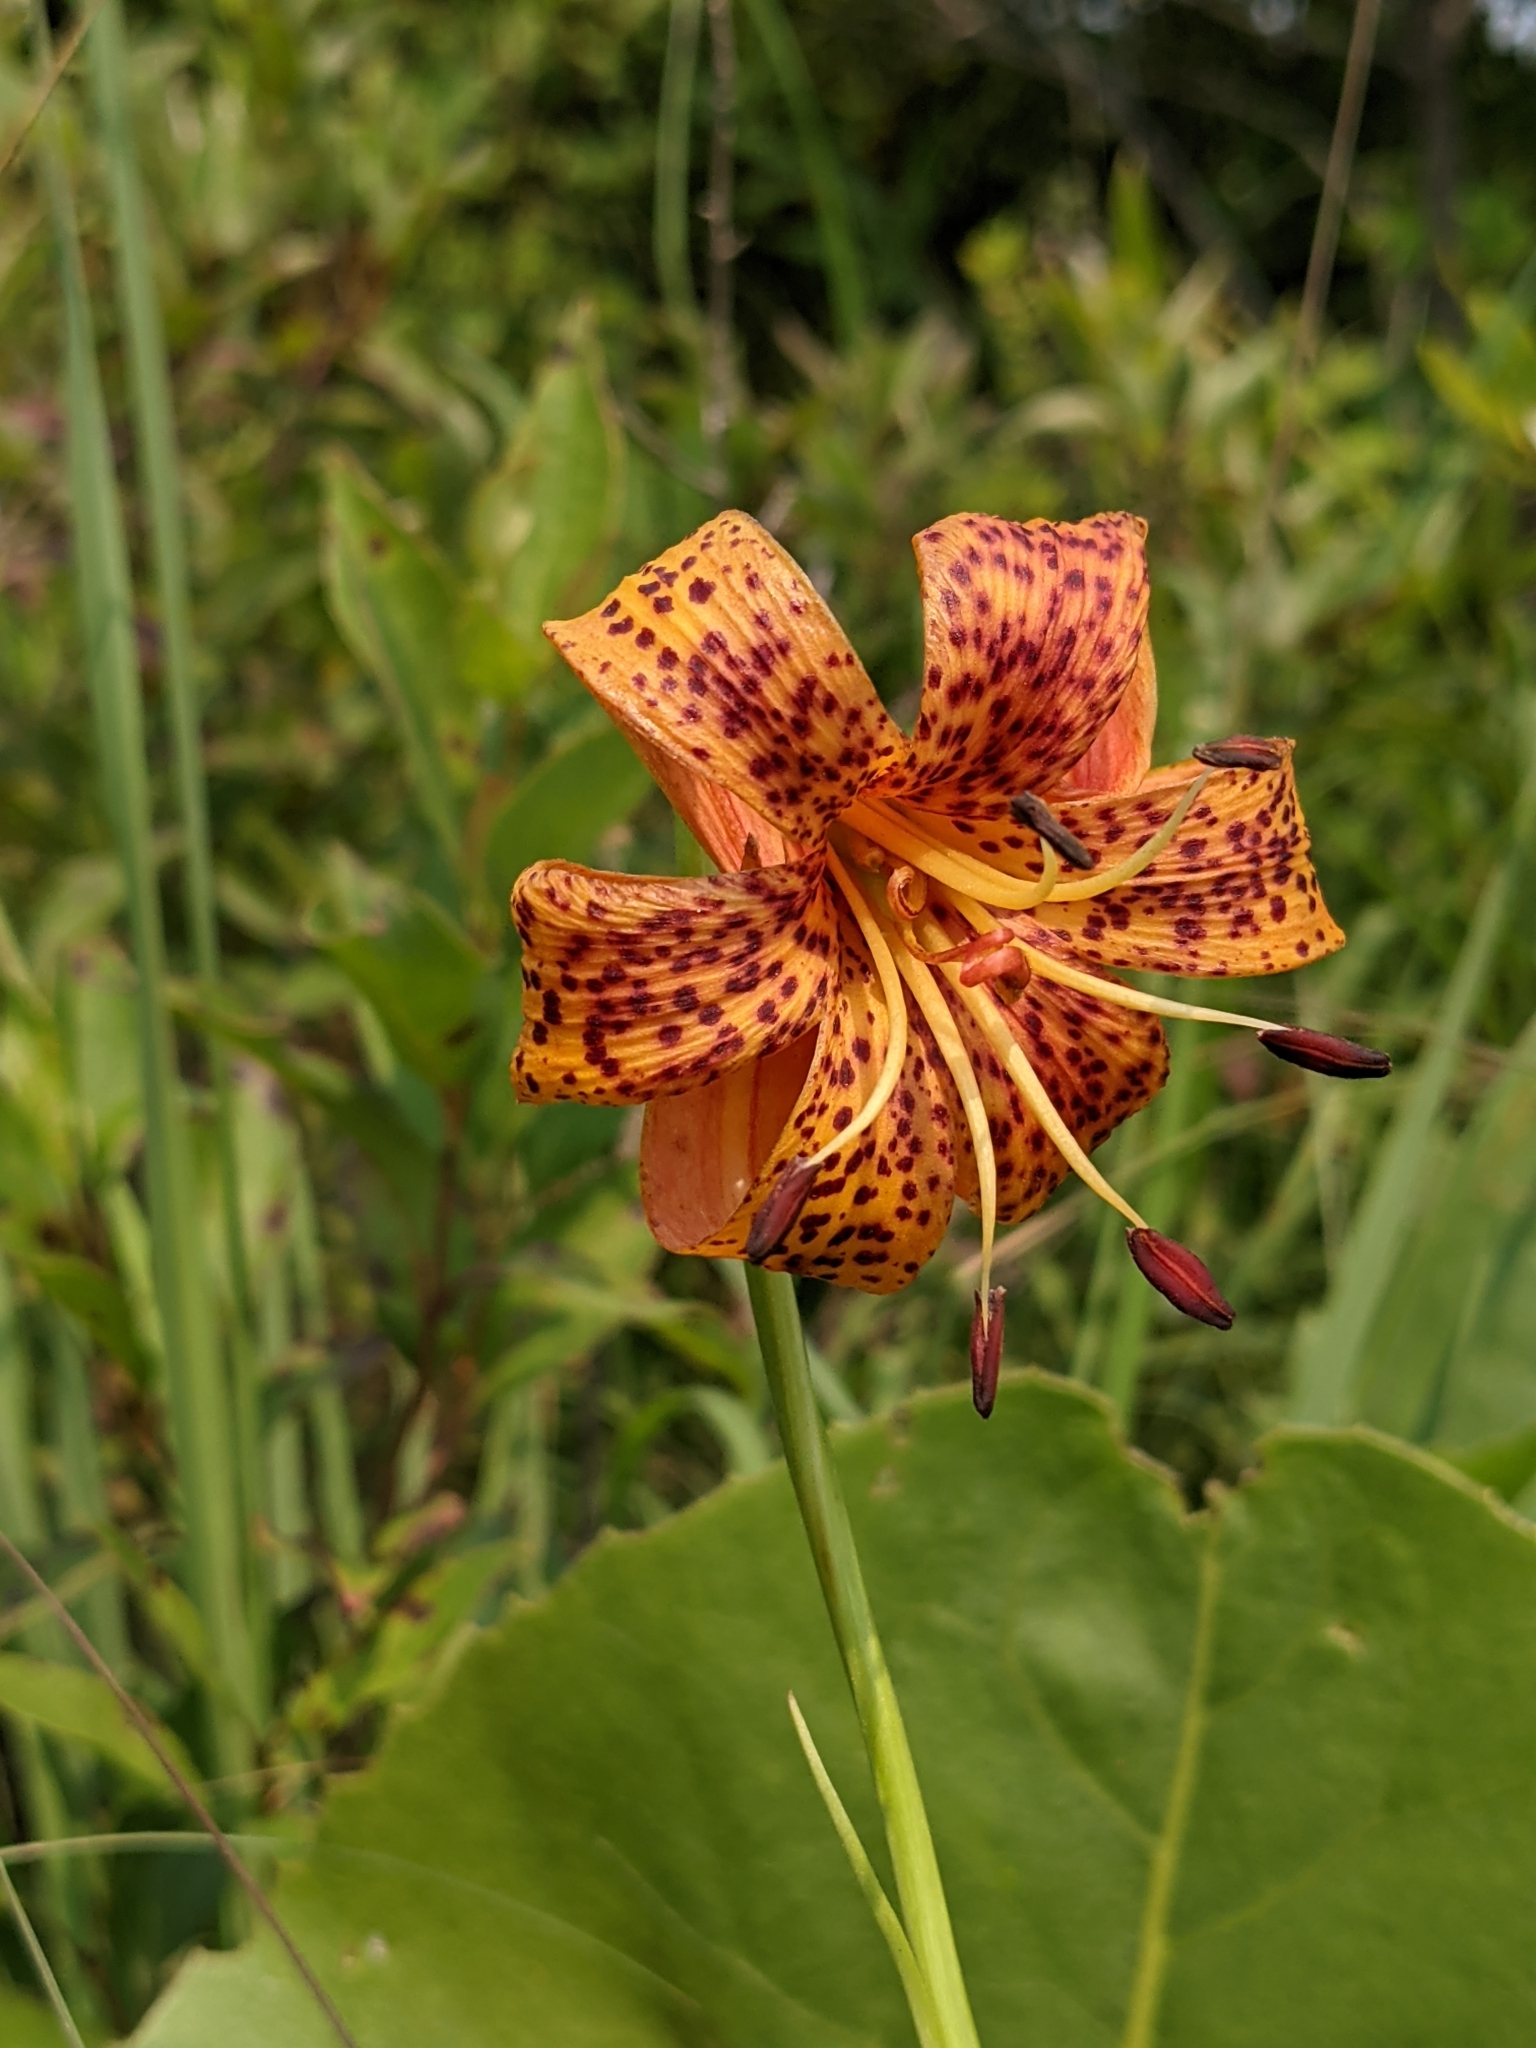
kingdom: Plantae
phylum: Tracheophyta
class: Liliopsida
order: Liliales
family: Liliaceae
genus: Lilium
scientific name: Lilium michiganense
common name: Michigan lily
